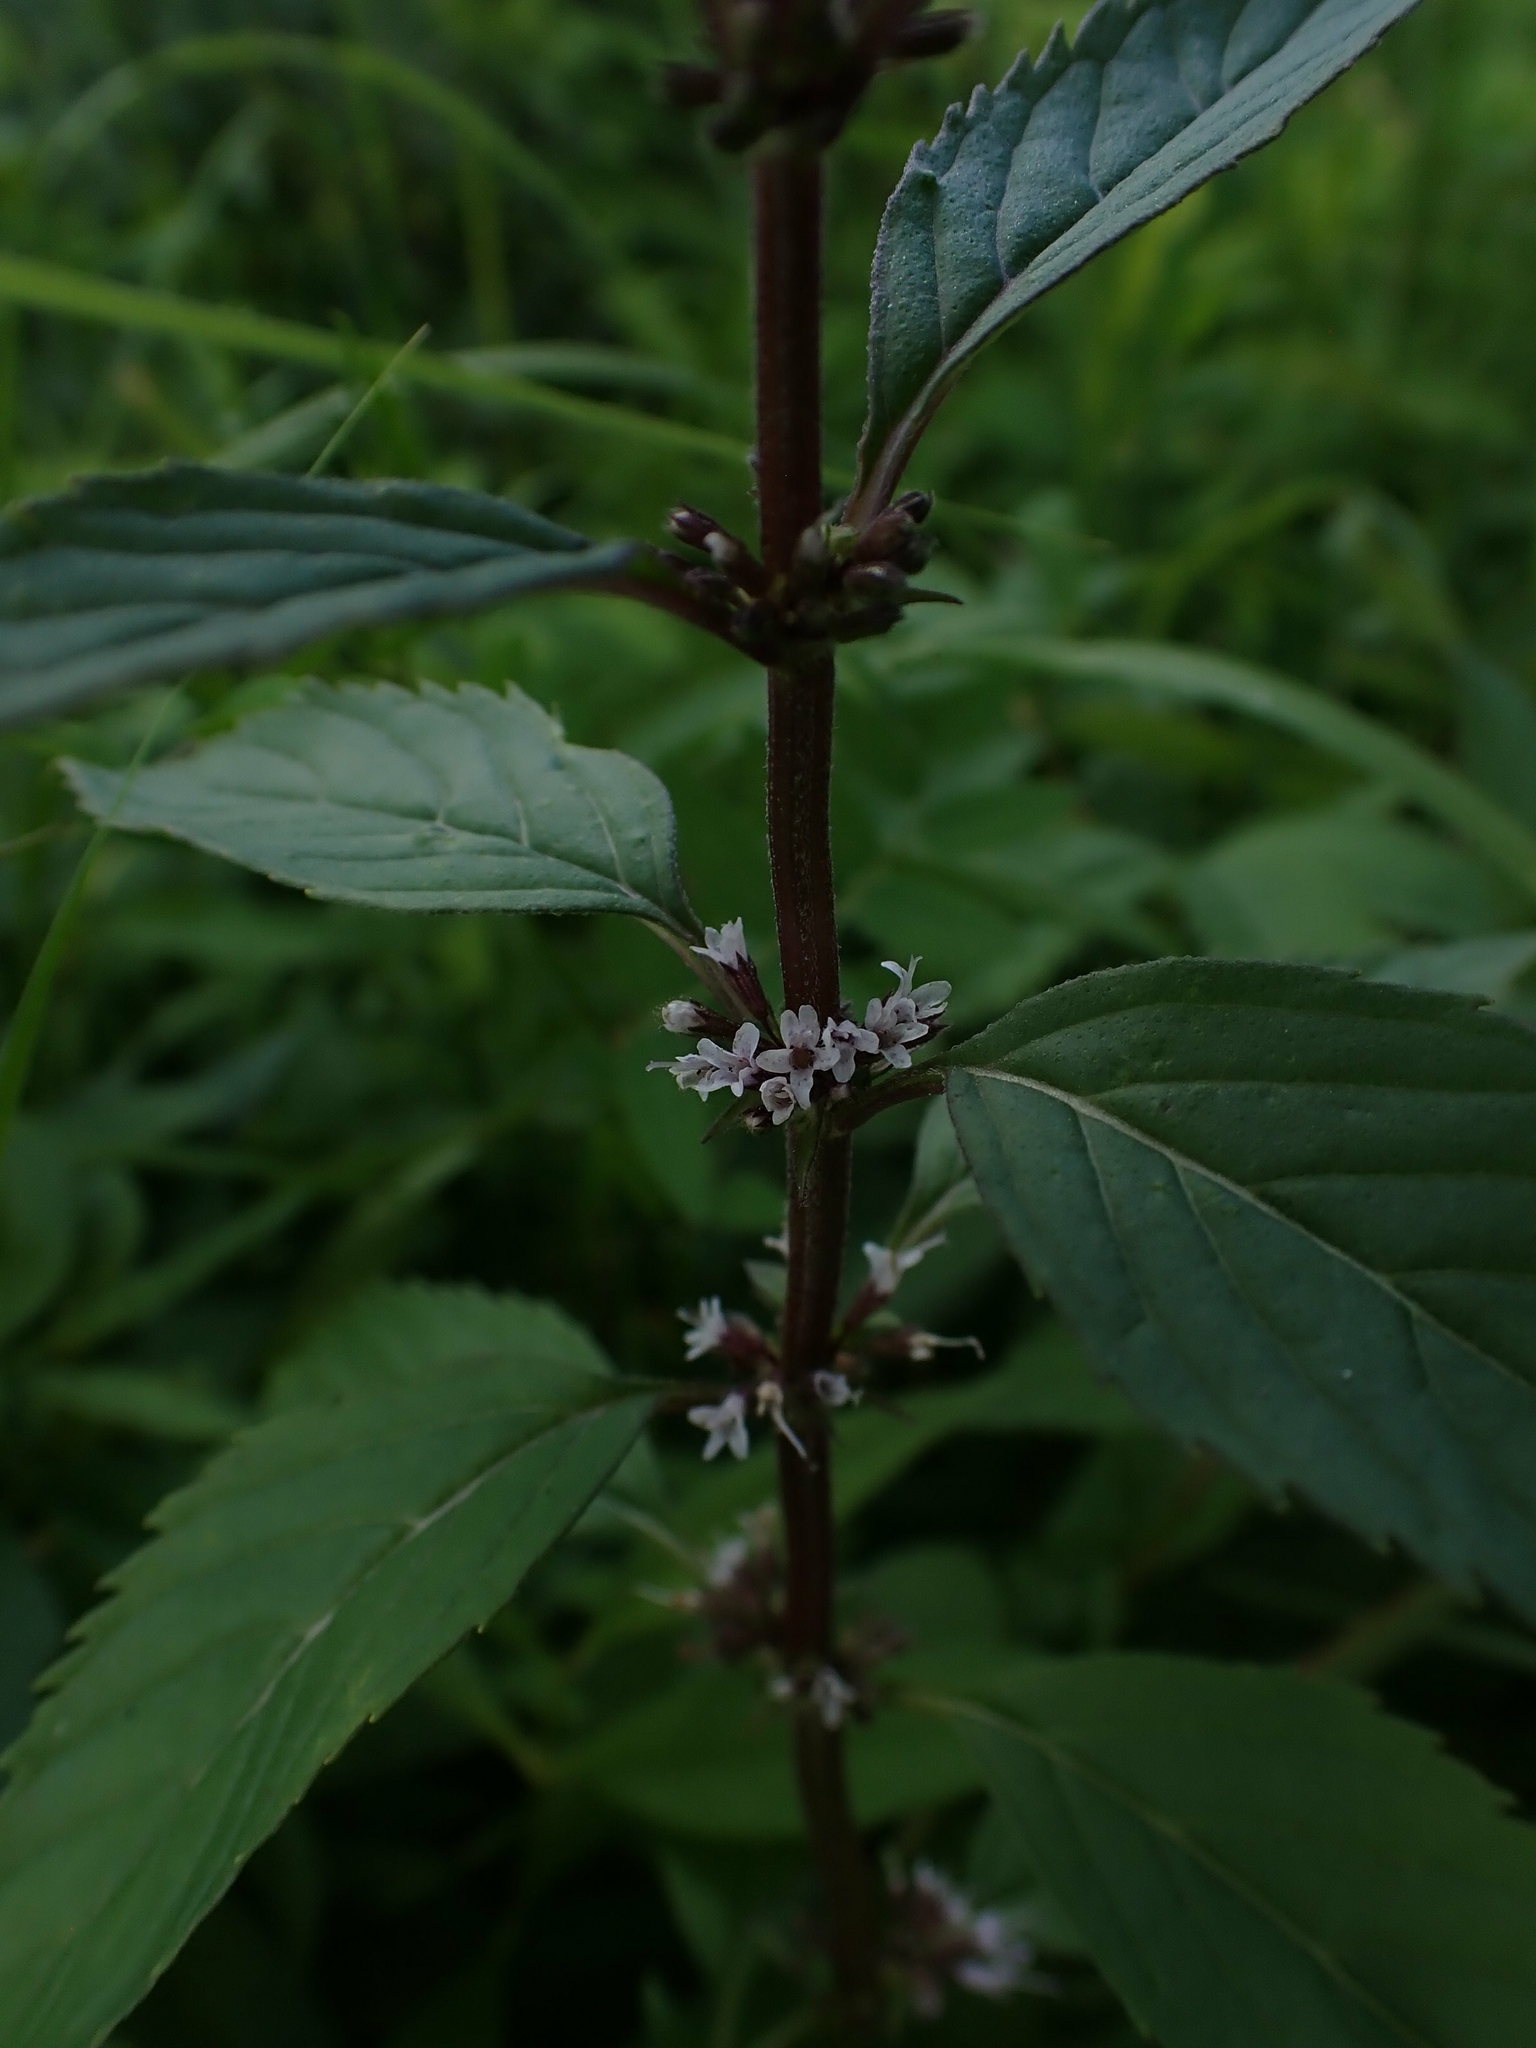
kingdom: Plantae
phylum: Tracheophyta
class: Magnoliopsida
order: Lamiales
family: Lamiaceae
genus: Mentha
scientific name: Mentha canadensis
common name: American corn mint
